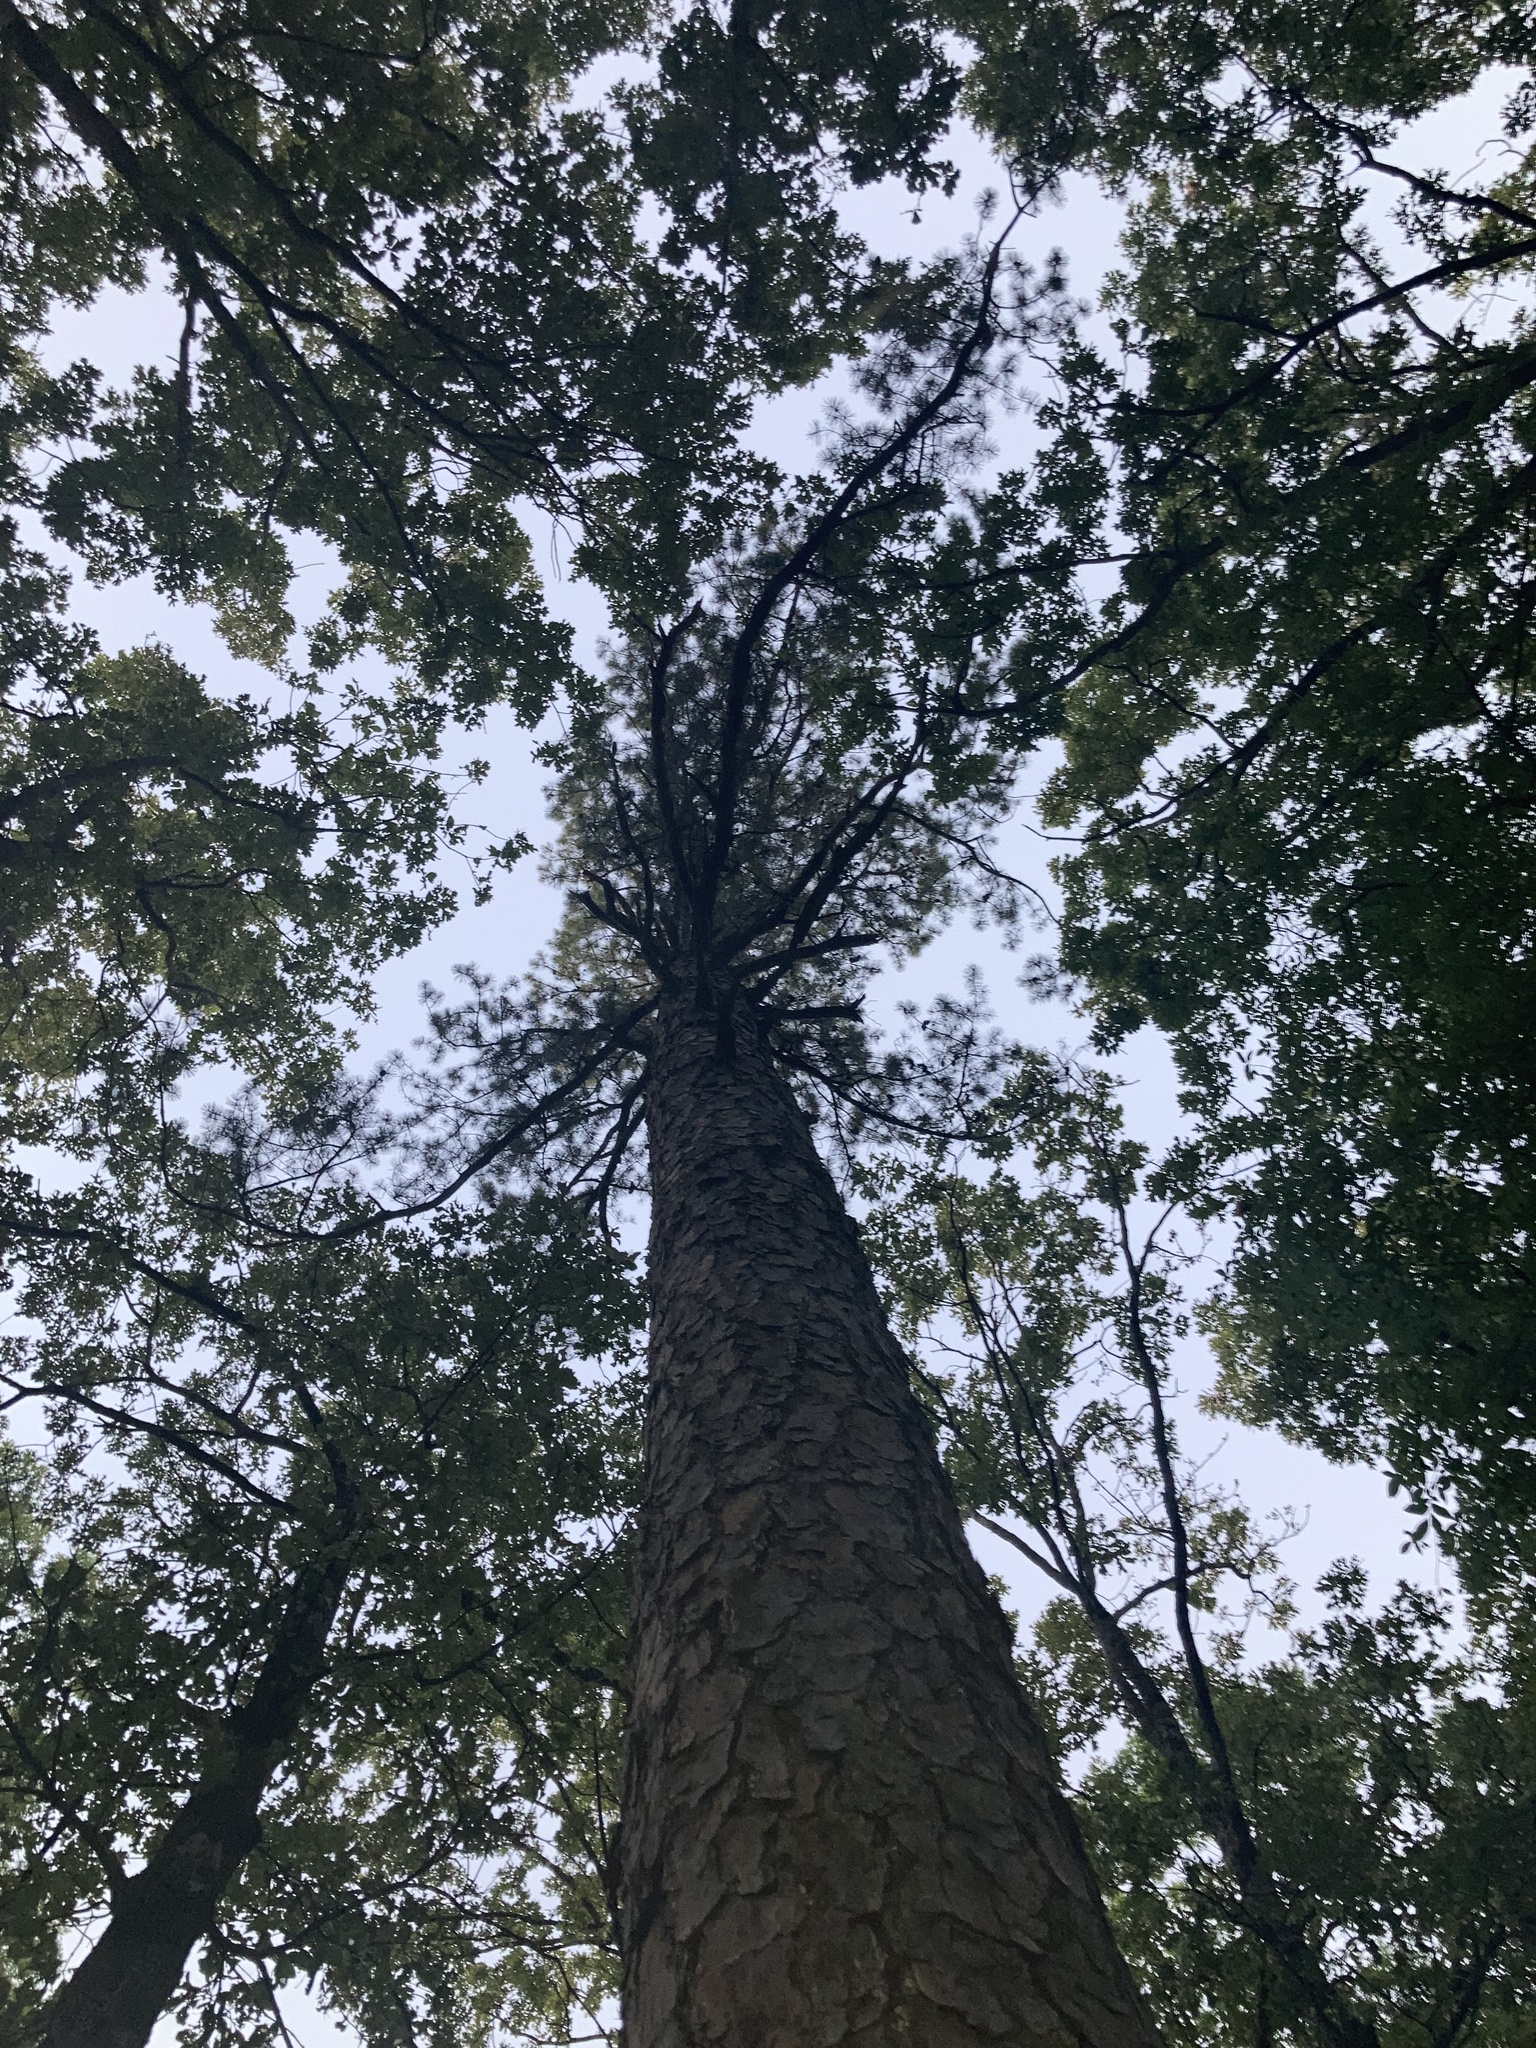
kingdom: Plantae
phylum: Tracheophyta
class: Pinopsida
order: Pinales
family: Pinaceae
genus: Pinus
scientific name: Pinus echinata
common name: Shortleaf pine
